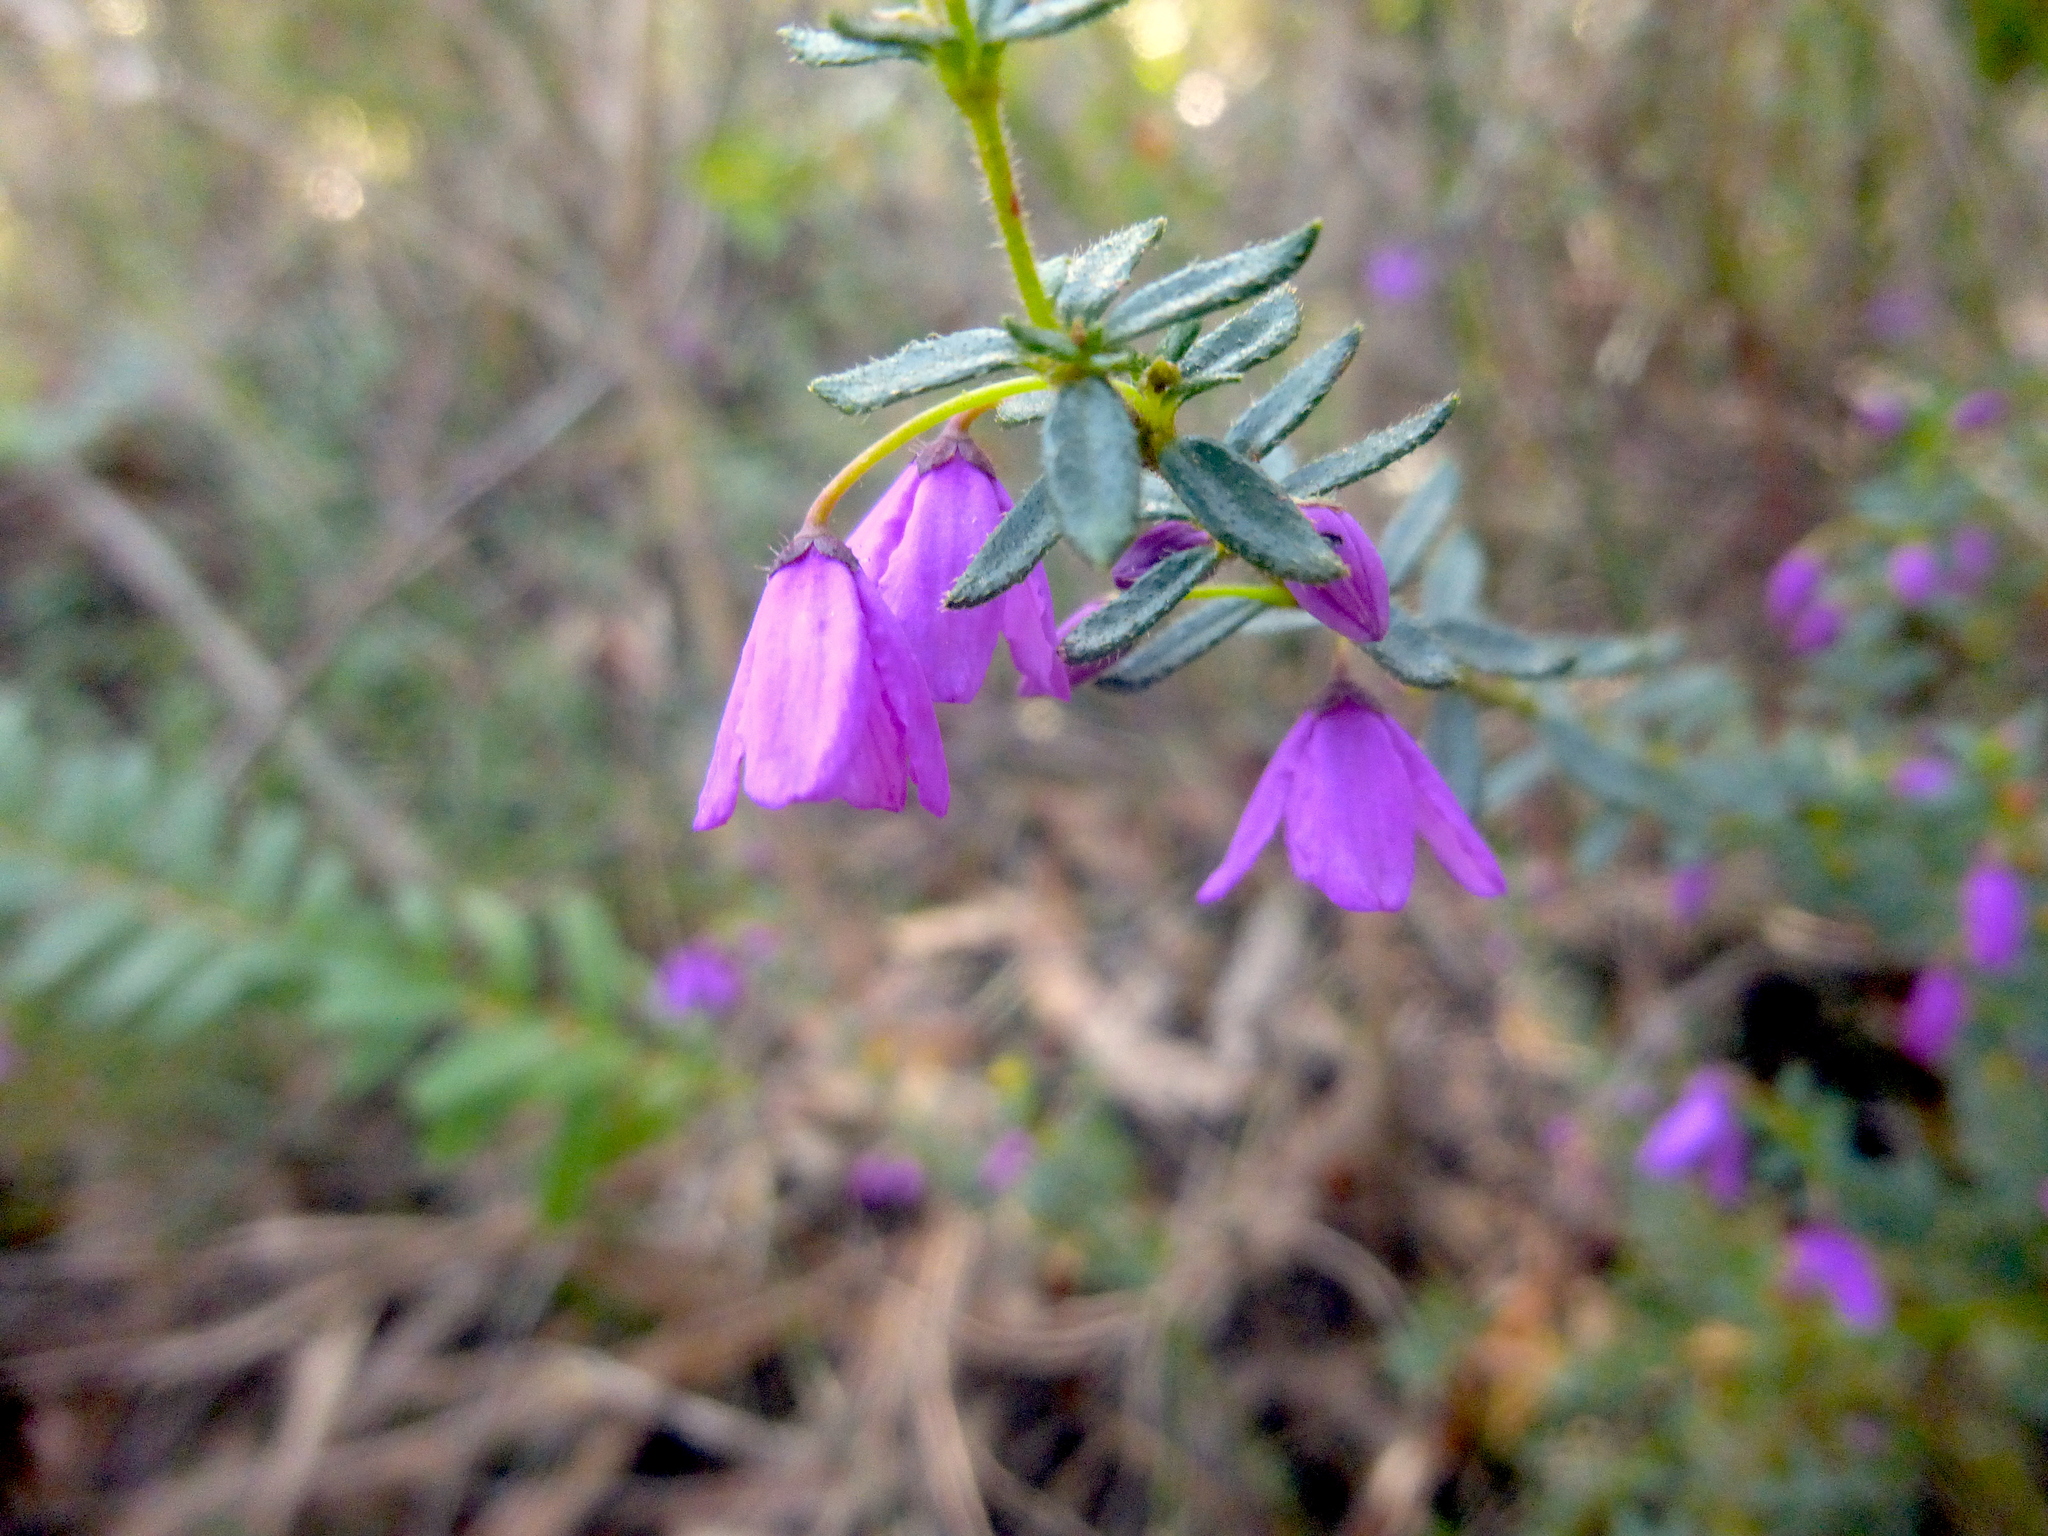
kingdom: Plantae
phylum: Tracheophyta
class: Magnoliopsida
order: Oxalidales
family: Elaeocarpaceae
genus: Tetratheca
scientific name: Tetratheca thymifolia
